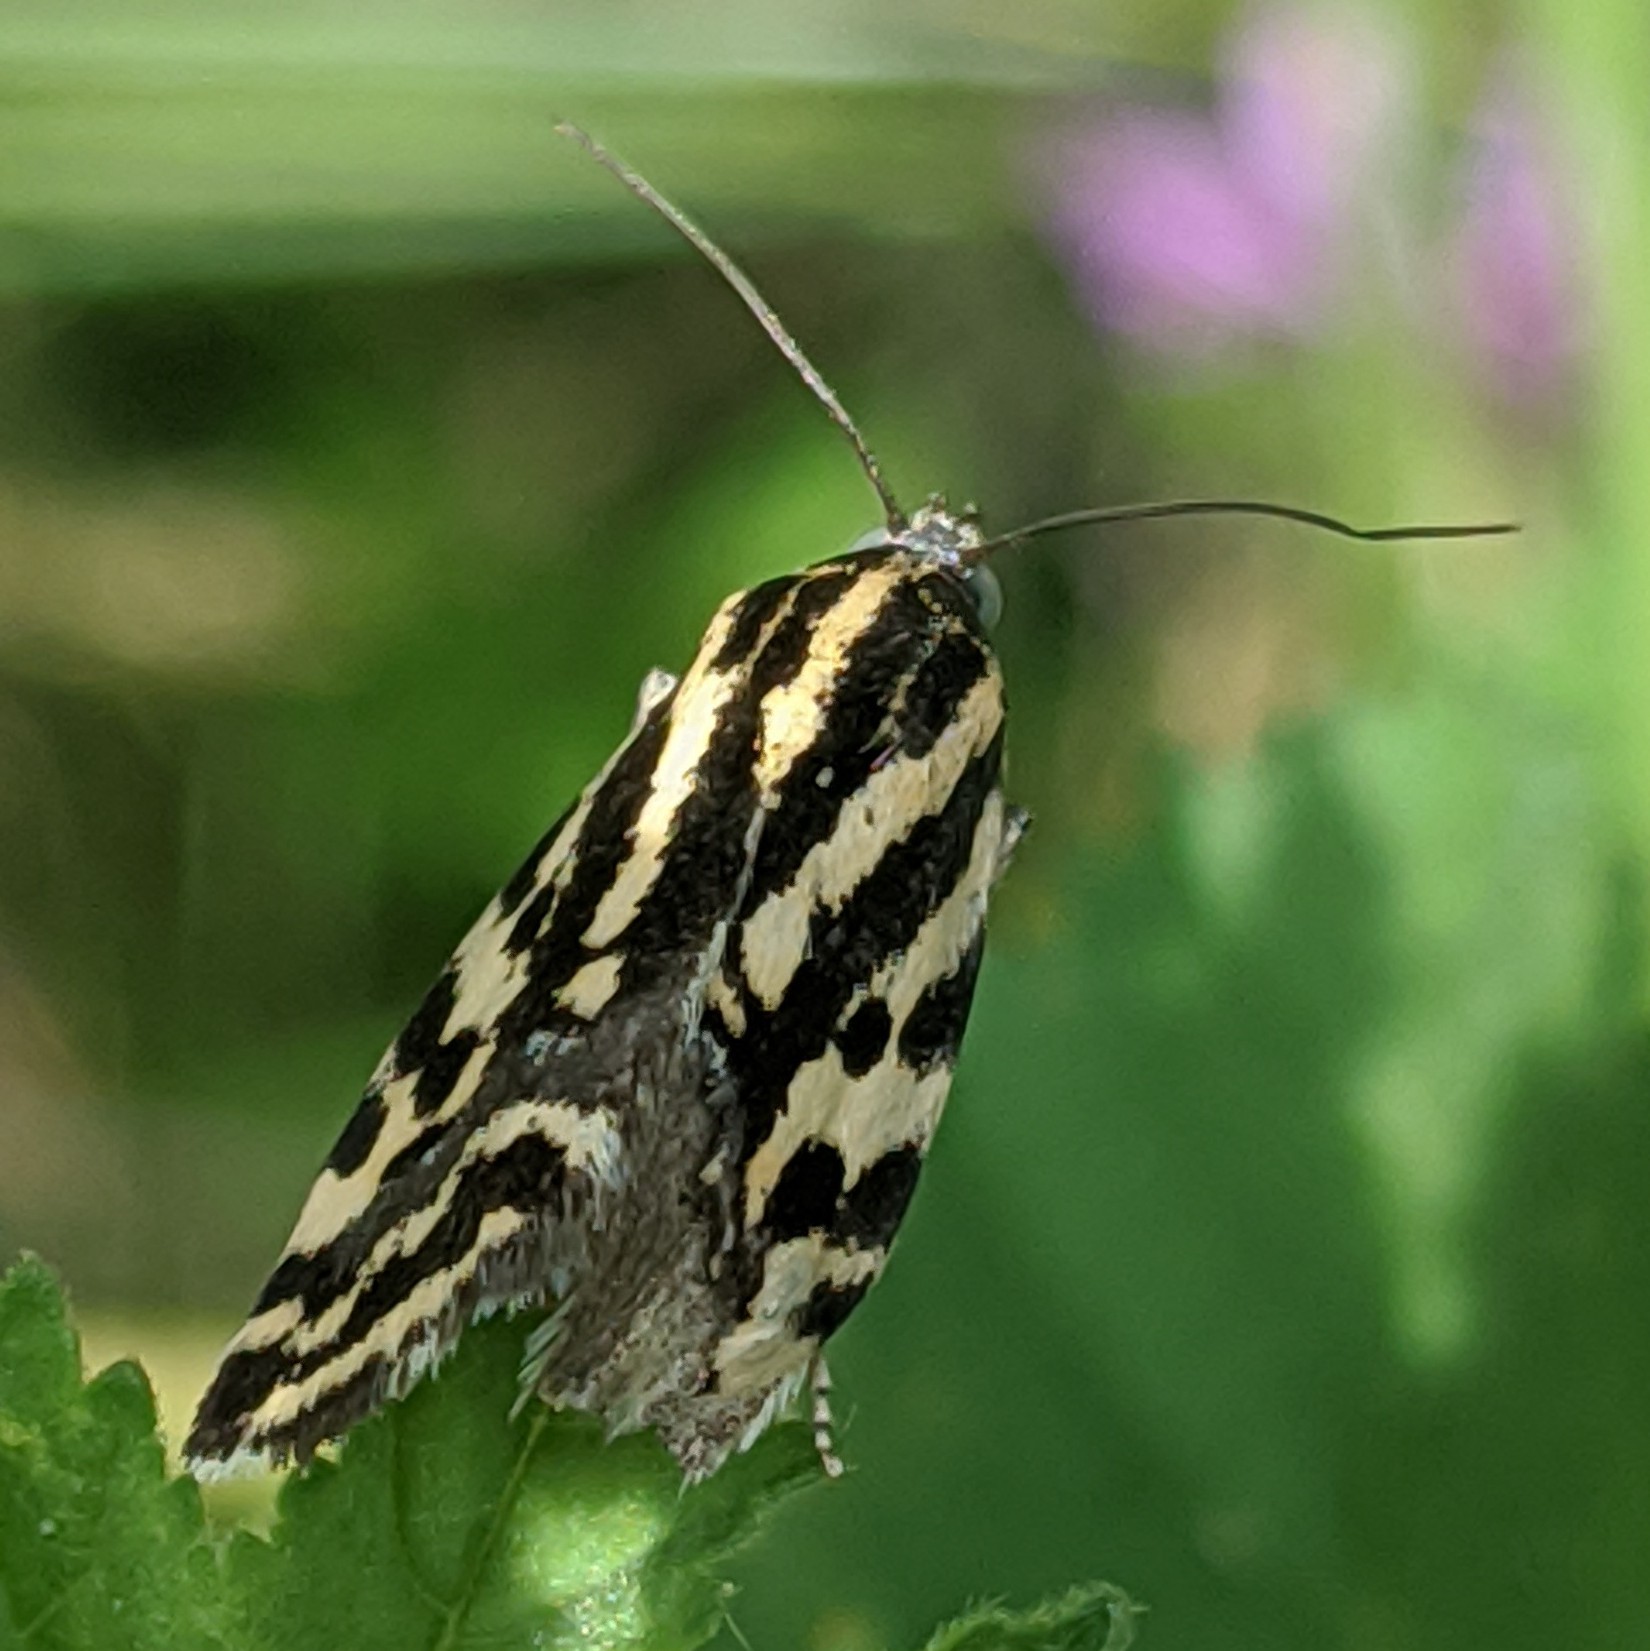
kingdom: Animalia
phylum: Arthropoda
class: Insecta
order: Lepidoptera
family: Noctuidae
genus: Acontia
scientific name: Acontia trabealis
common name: Spotted sulphur
